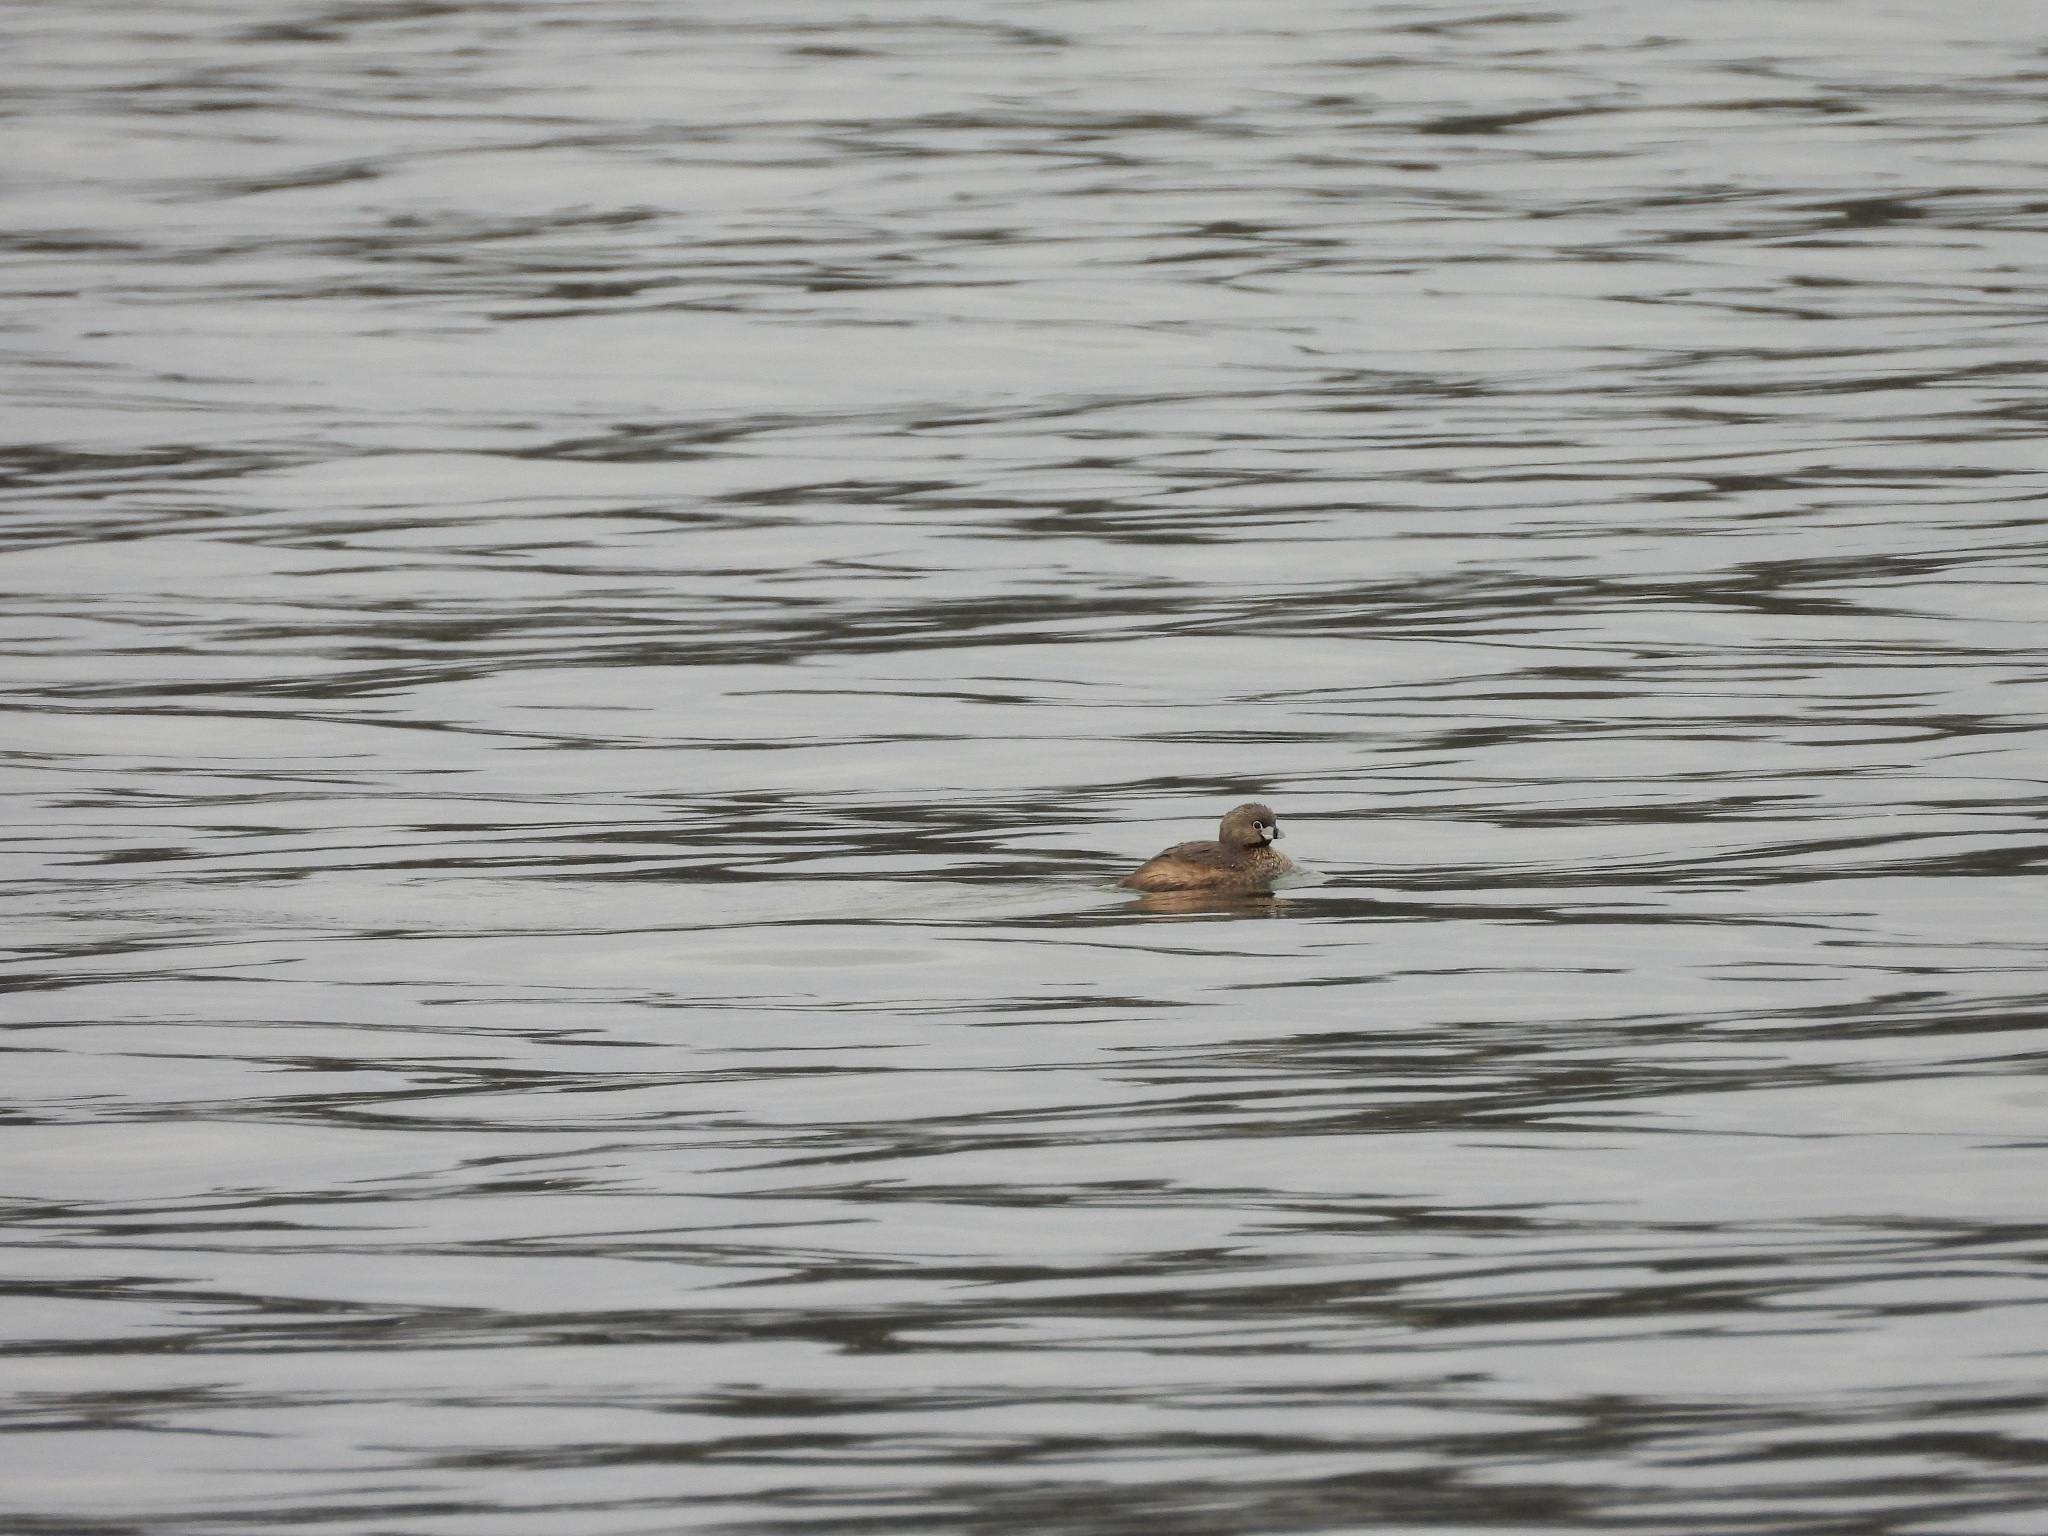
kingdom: Animalia
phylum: Chordata
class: Aves
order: Podicipediformes
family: Podicipedidae
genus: Podilymbus
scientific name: Podilymbus podiceps
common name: Pied-billed grebe
